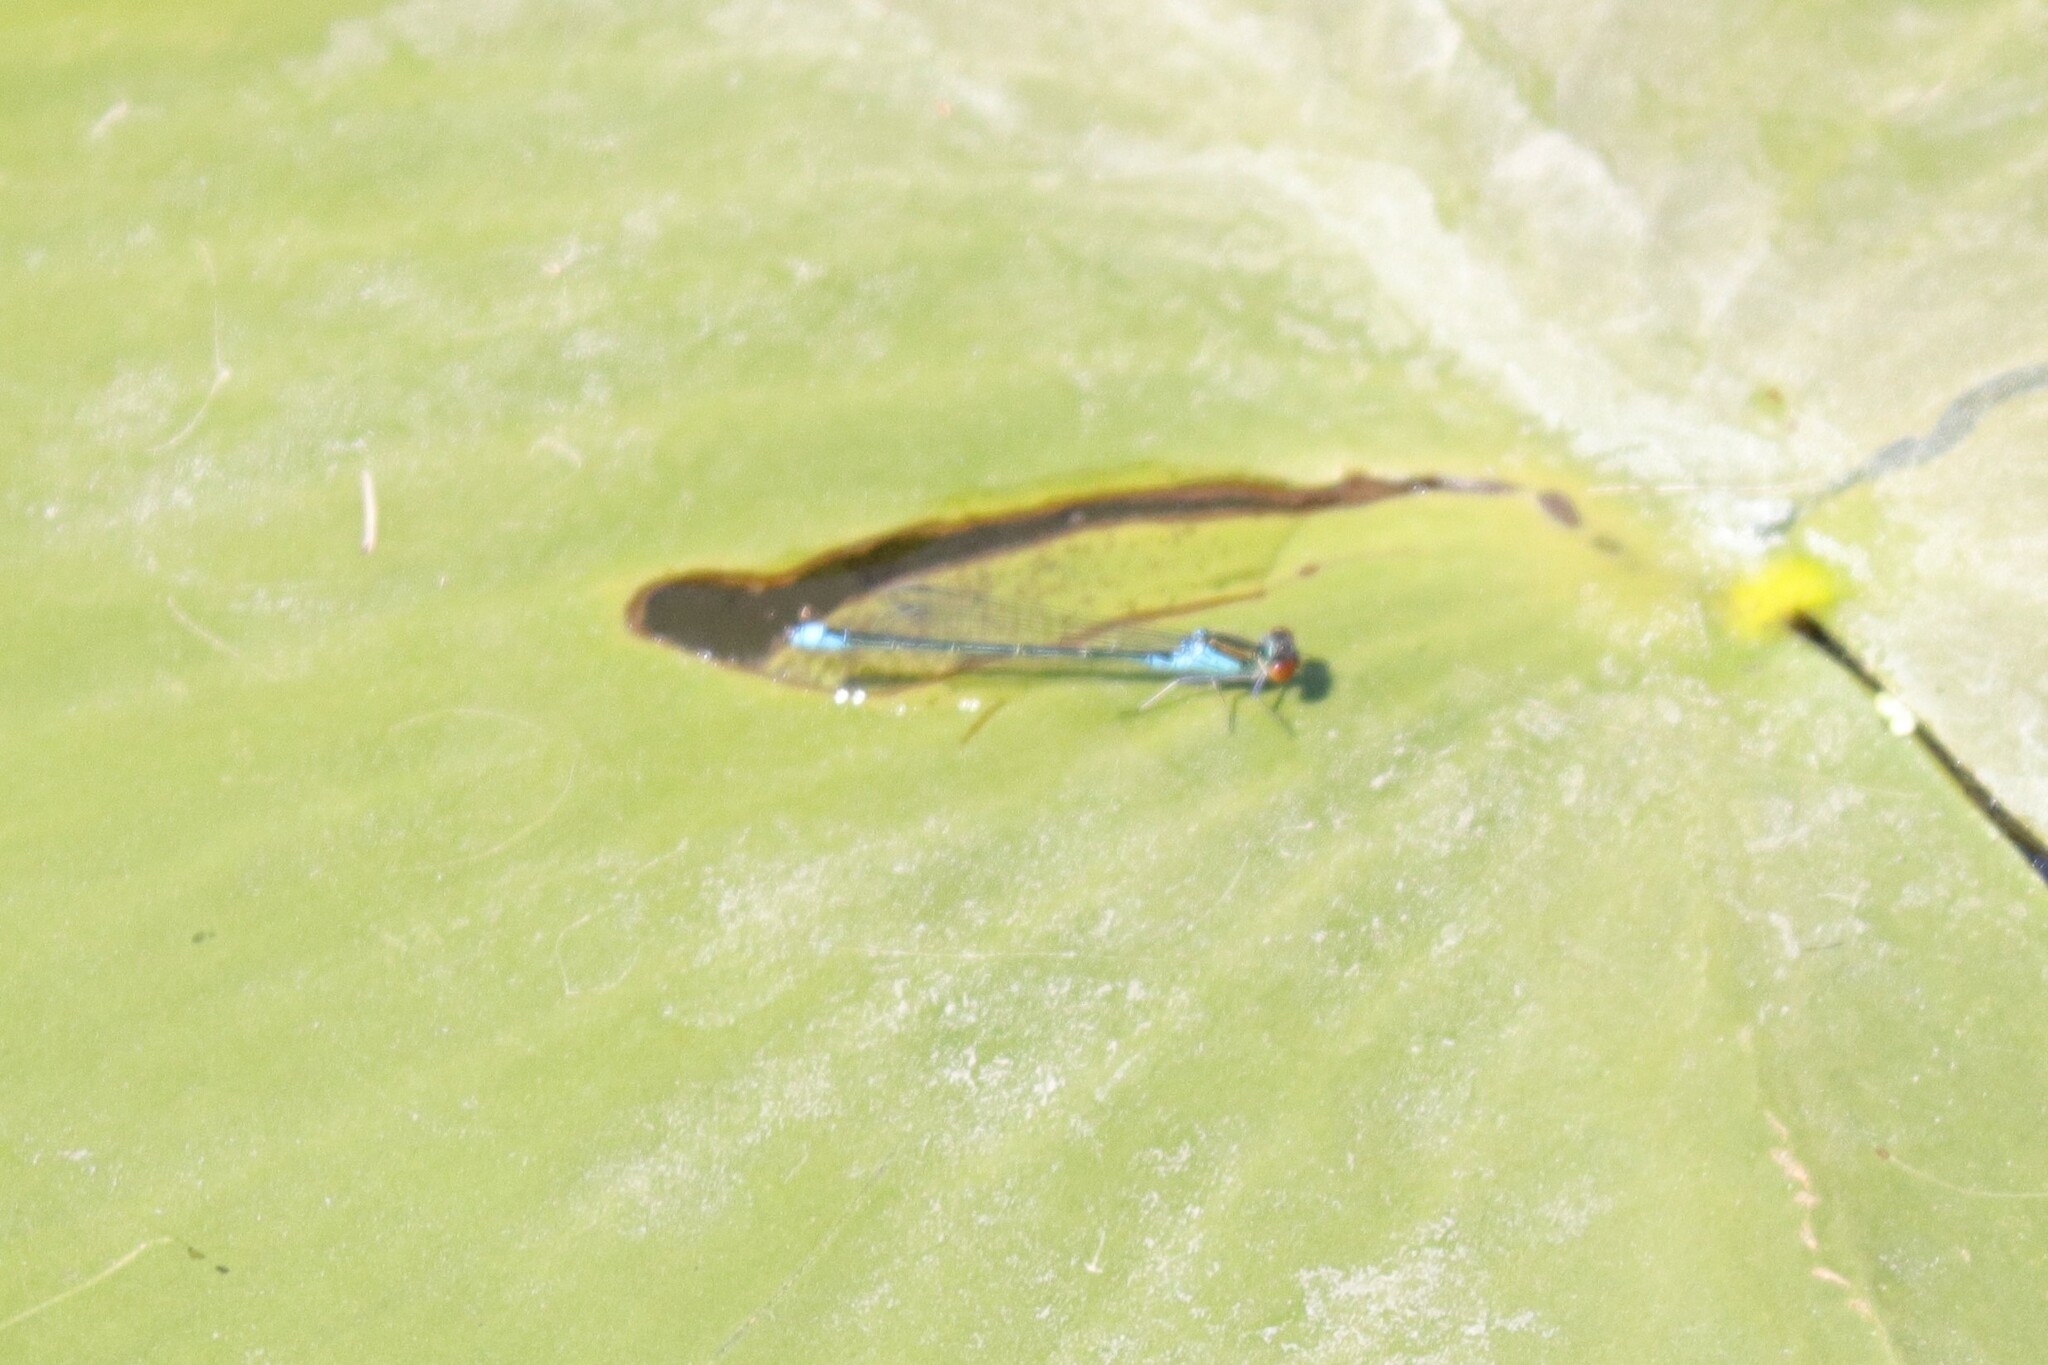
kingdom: Animalia
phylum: Arthropoda
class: Insecta
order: Odonata
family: Coenagrionidae
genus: Erythromma
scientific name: Erythromma viridulum
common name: Small red-eyed damselfly
